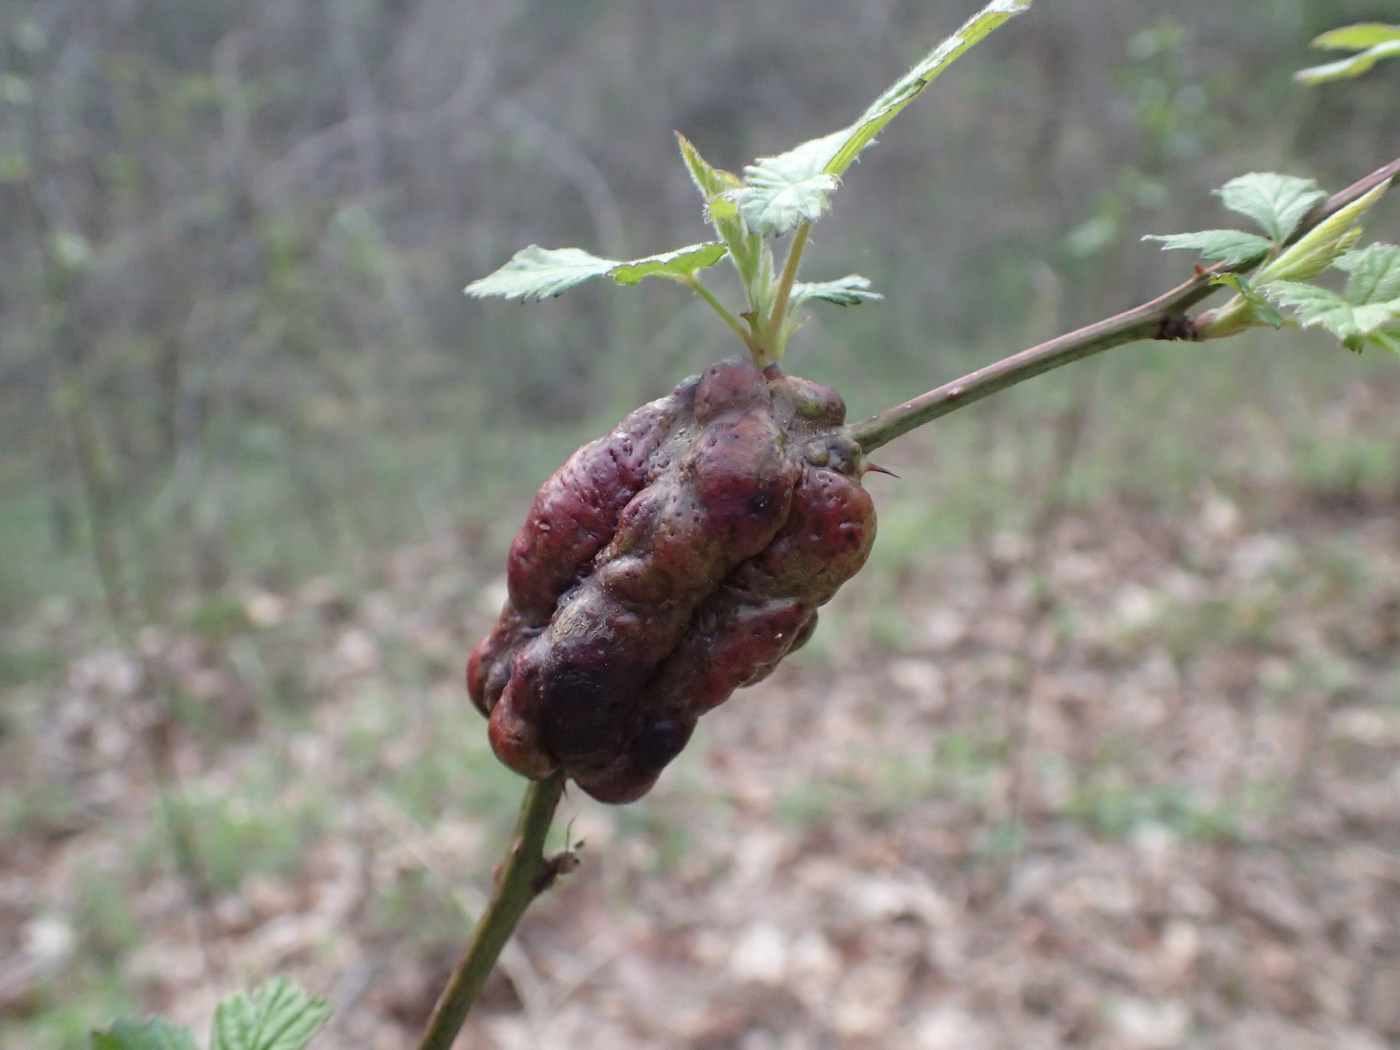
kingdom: Animalia
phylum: Arthropoda
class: Insecta
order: Hymenoptera
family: Cynipidae
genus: Diastrophus
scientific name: Diastrophus
